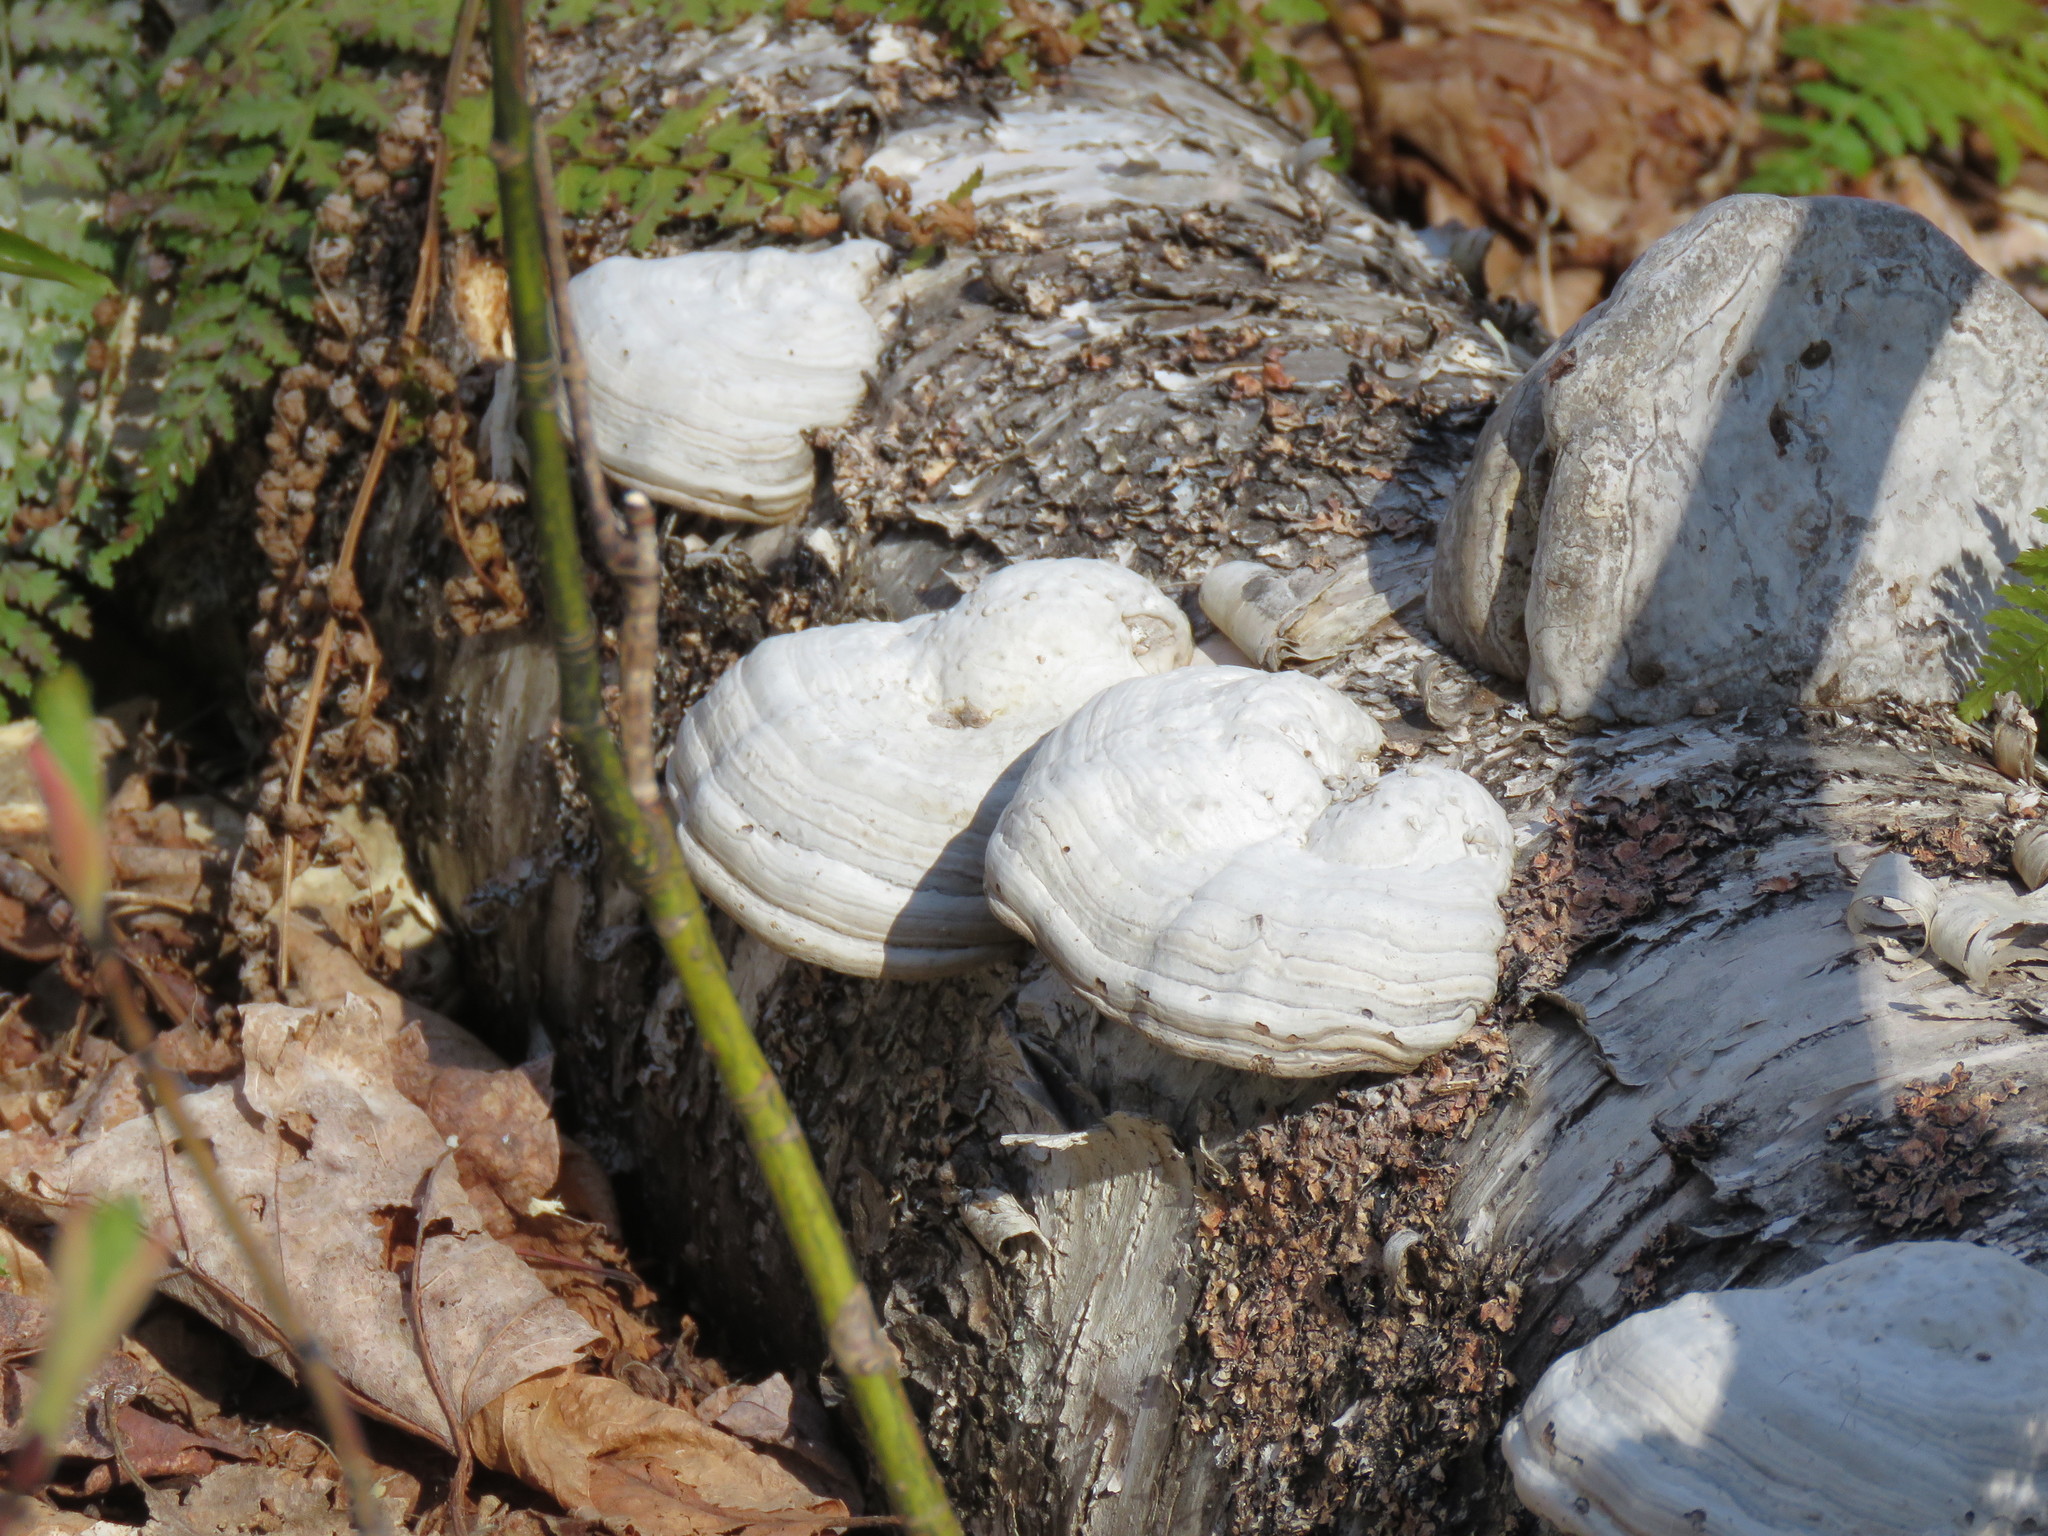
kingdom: Fungi
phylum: Basidiomycota
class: Agaricomycetes
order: Polyporales
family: Polyporaceae
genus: Fomes
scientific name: Fomes fomentarius
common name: Hoof fungus
